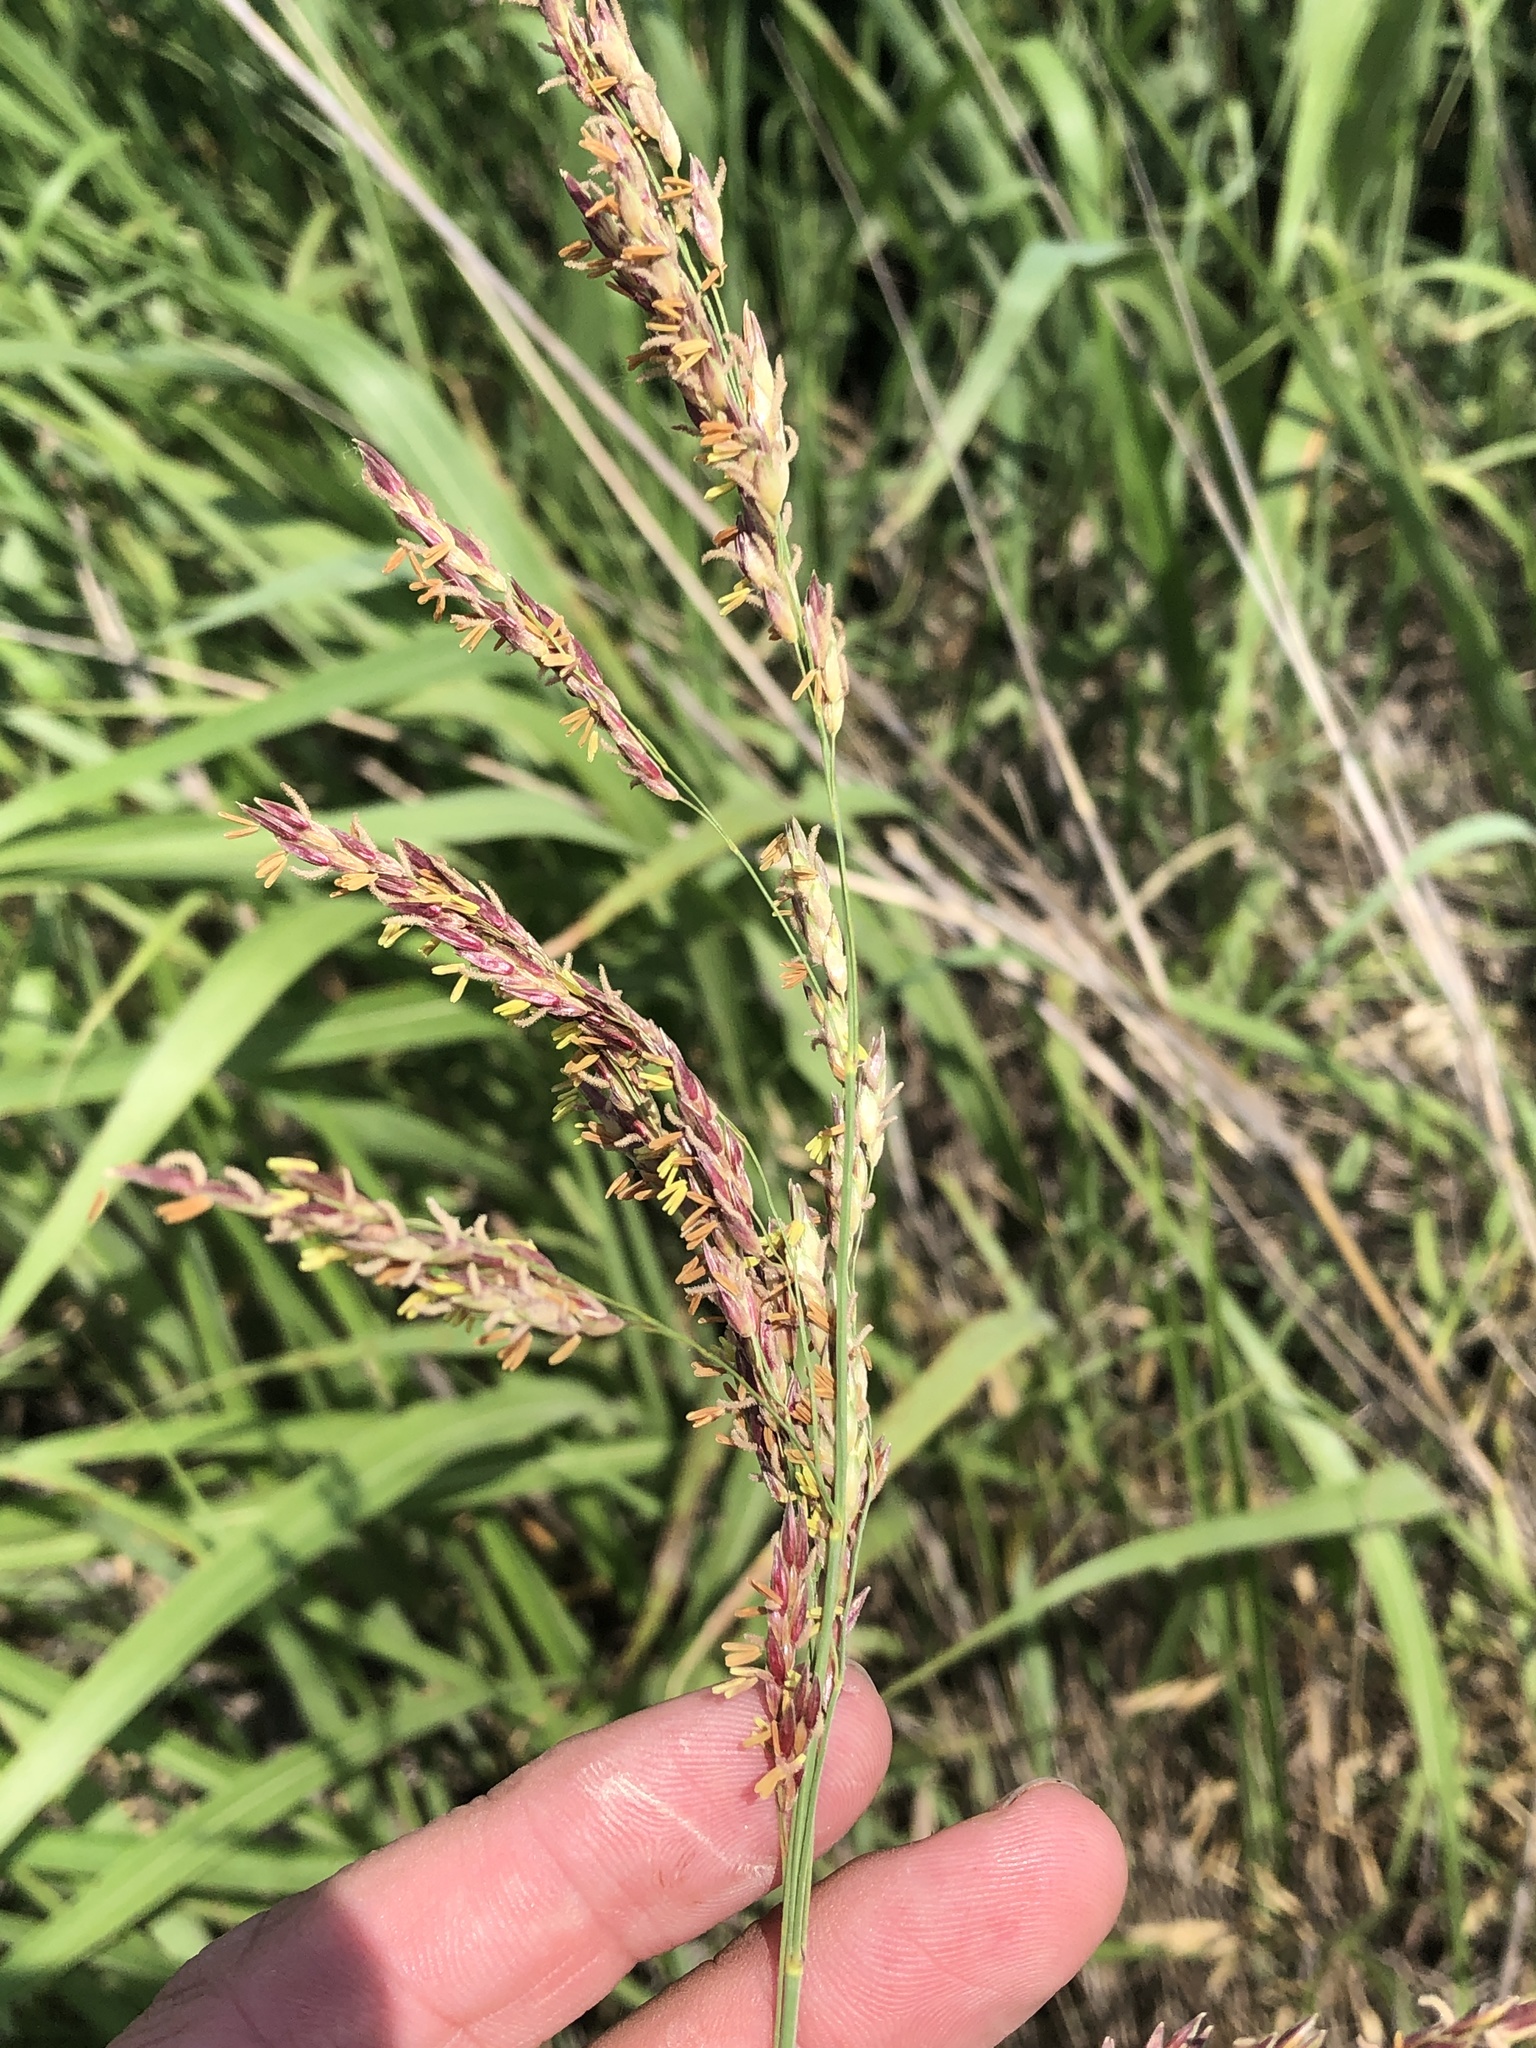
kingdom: Plantae
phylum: Tracheophyta
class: Liliopsida
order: Poales
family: Poaceae
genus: Sorghum
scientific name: Sorghum halepense
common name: Johnson-grass
